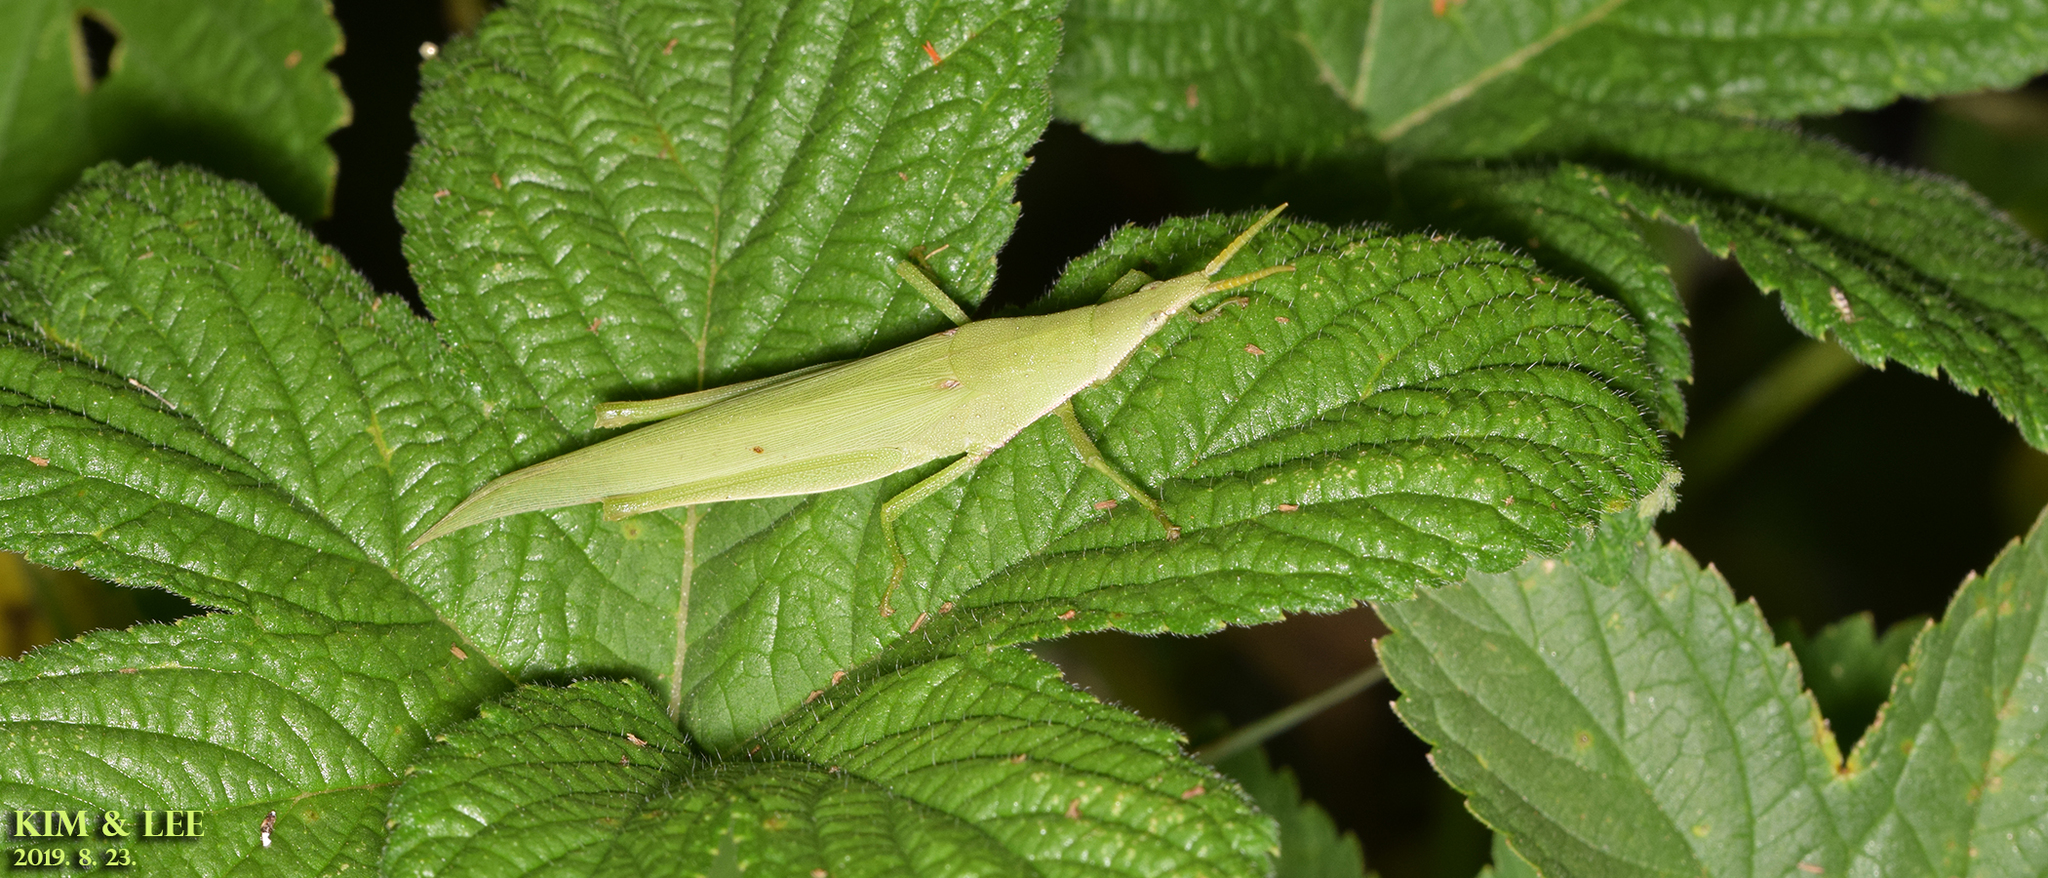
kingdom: Animalia
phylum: Arthropoda
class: Insecta
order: Orthoptera
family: Pyrgomorphidae
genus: Atractomorpha
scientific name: Atractomorpha lata
